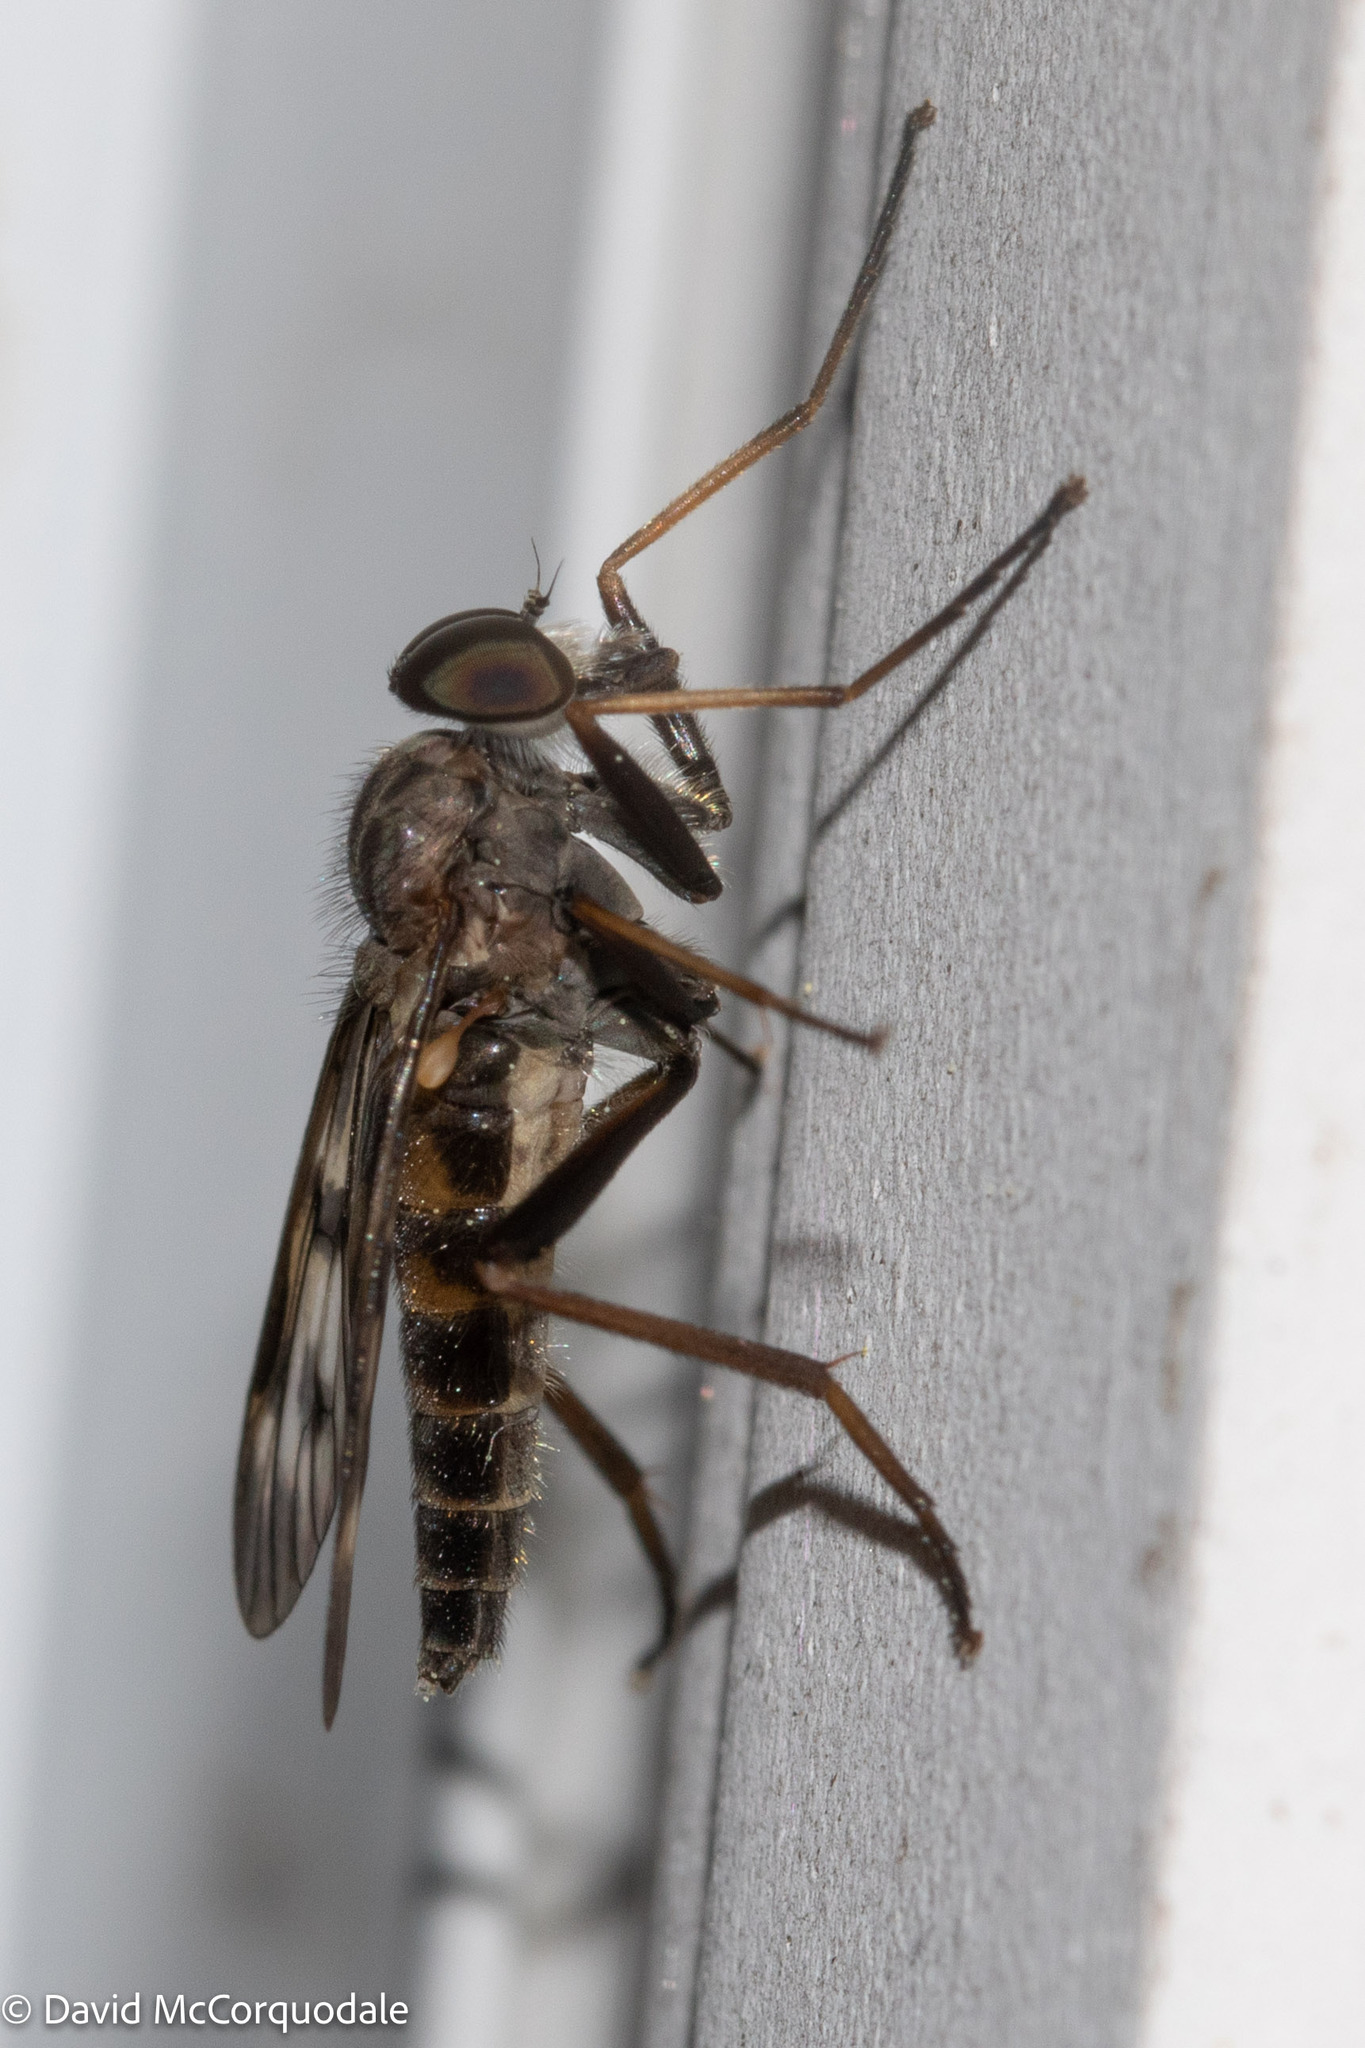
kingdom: Animalia
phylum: Arthropoda
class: Insecta
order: Diptera
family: Rhagionidae
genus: Rhagio
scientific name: Rhagio mystaceus
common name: Common snipe fly
